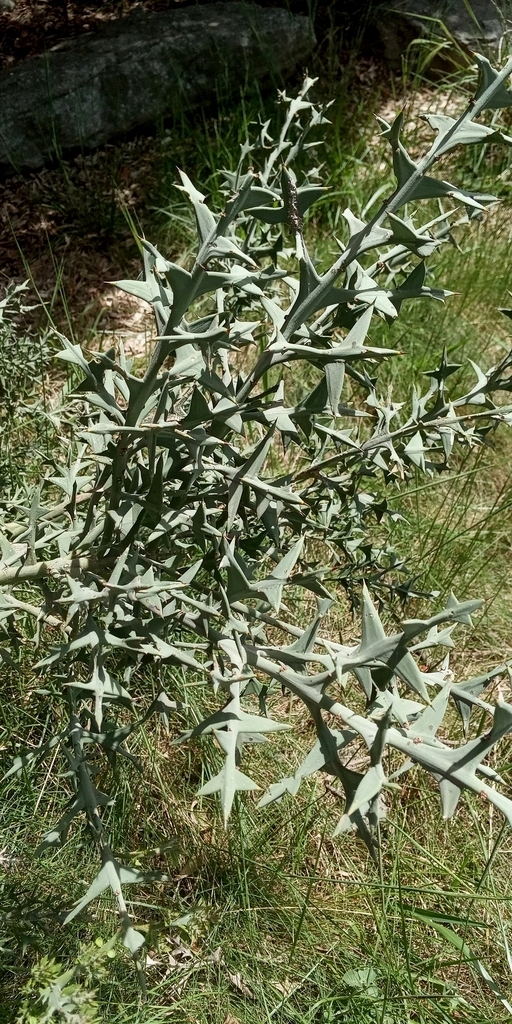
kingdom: Plantae
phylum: Tracheophyta
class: Magnoliopsida
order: Rosales
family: Rhamnaceae
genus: Colletia
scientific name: Colletia paradoxa
